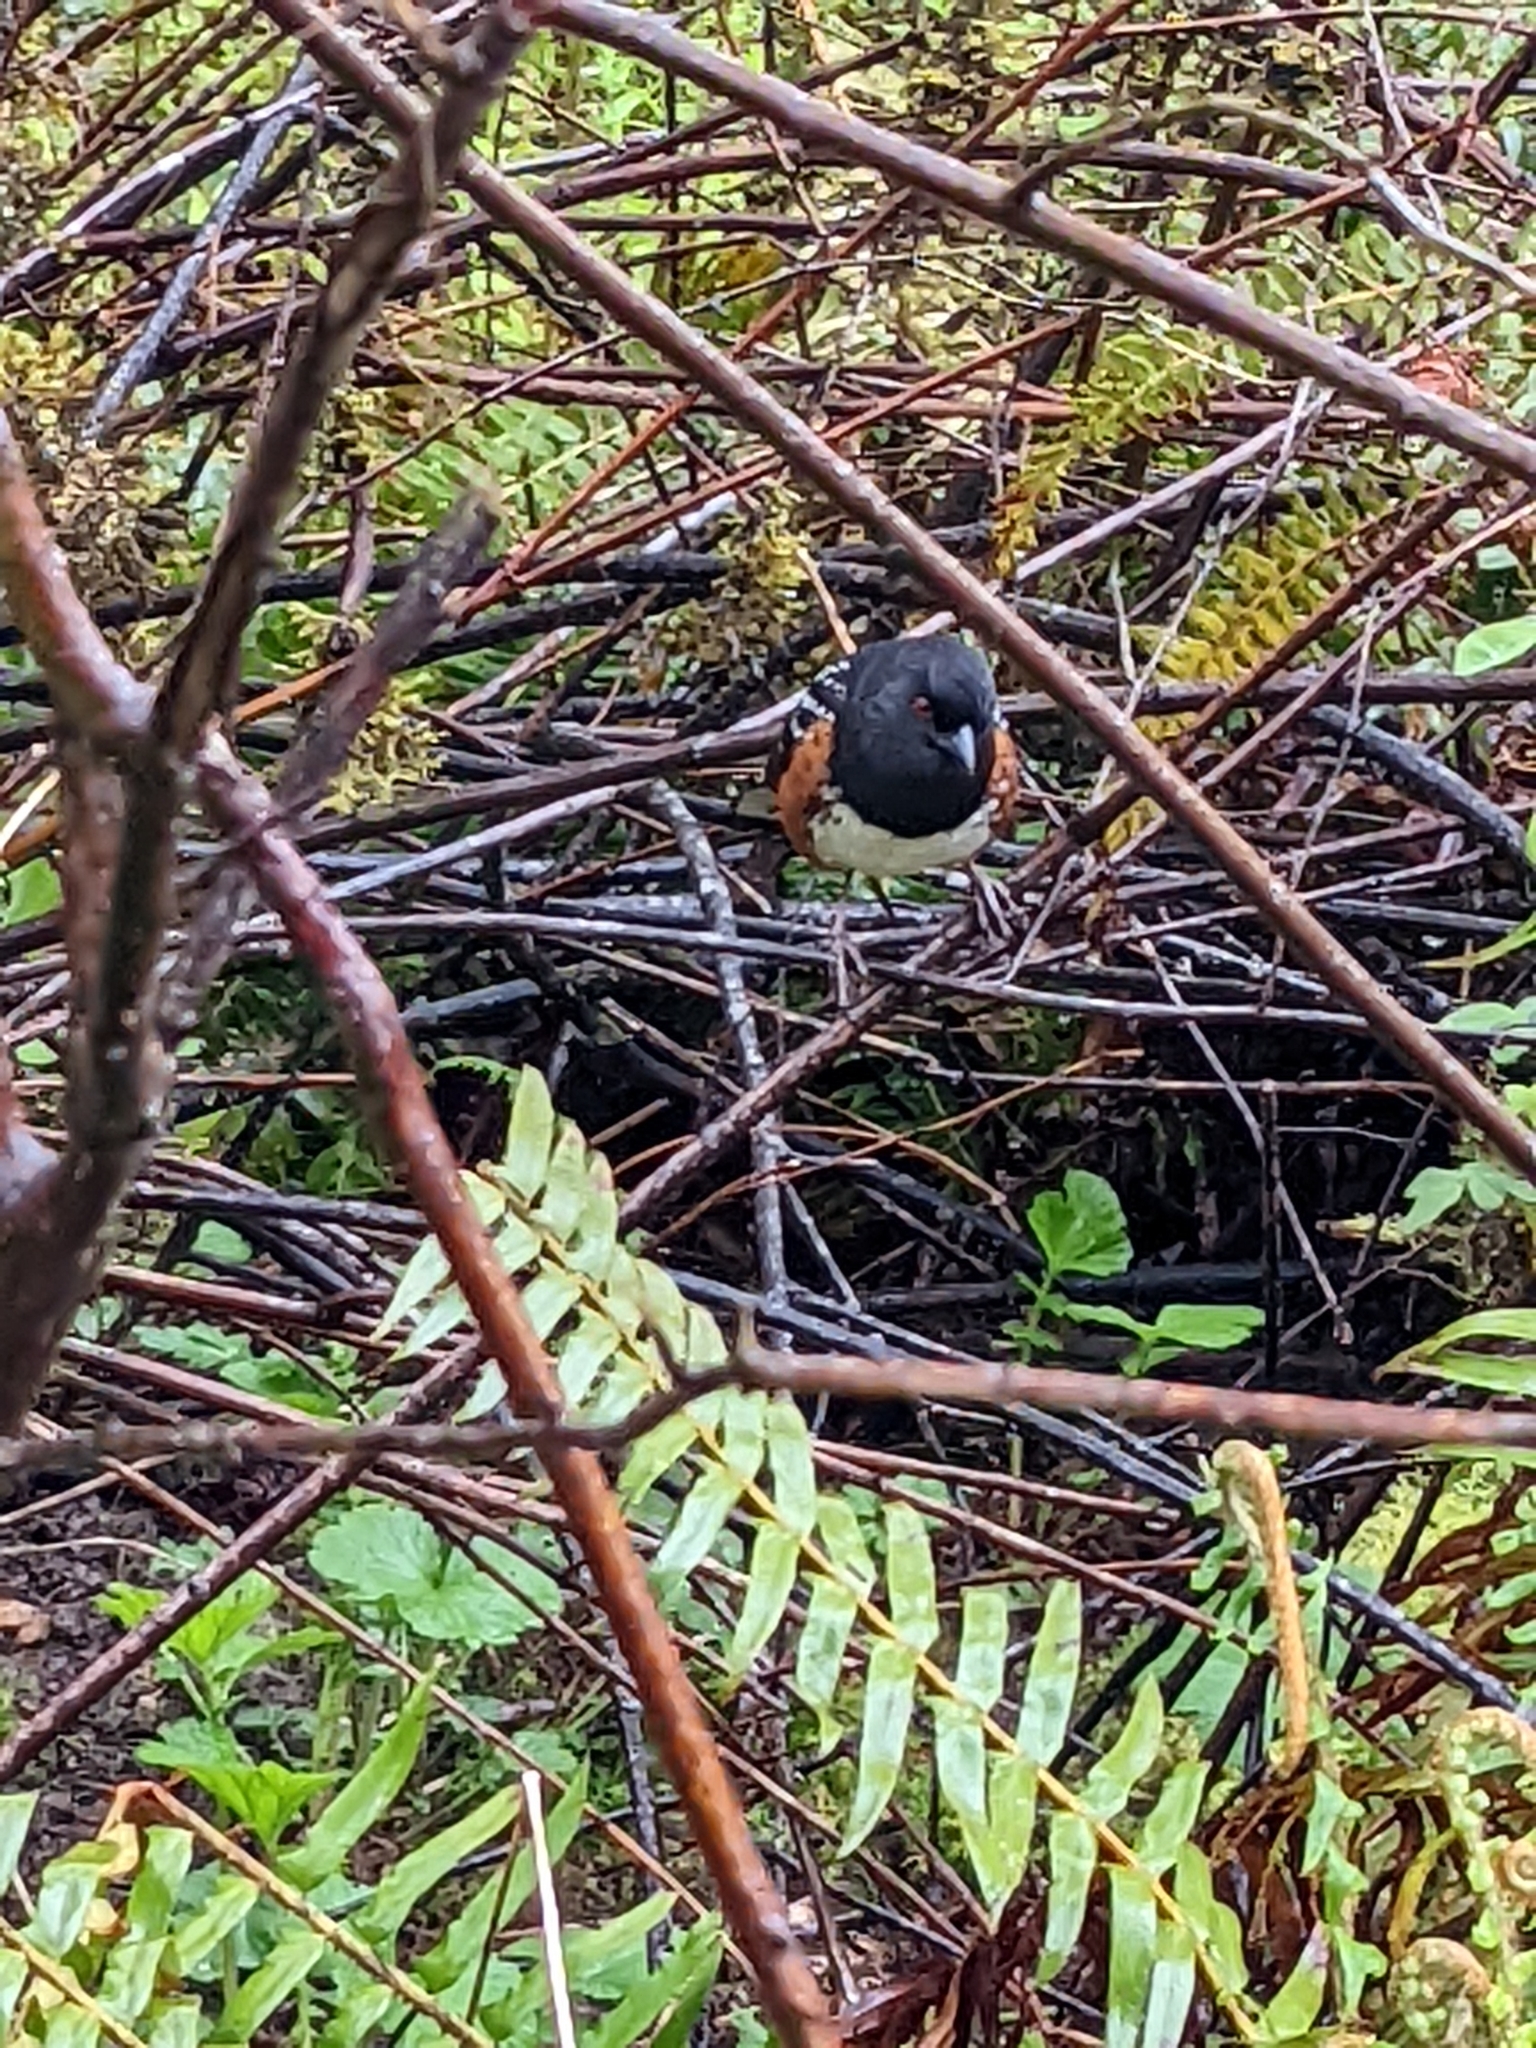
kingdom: Animalia
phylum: Chordata
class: Aves
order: Passeriformes
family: Passerellidae
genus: Pipilo
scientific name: Pipilo maculatus
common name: Spotted towhee
